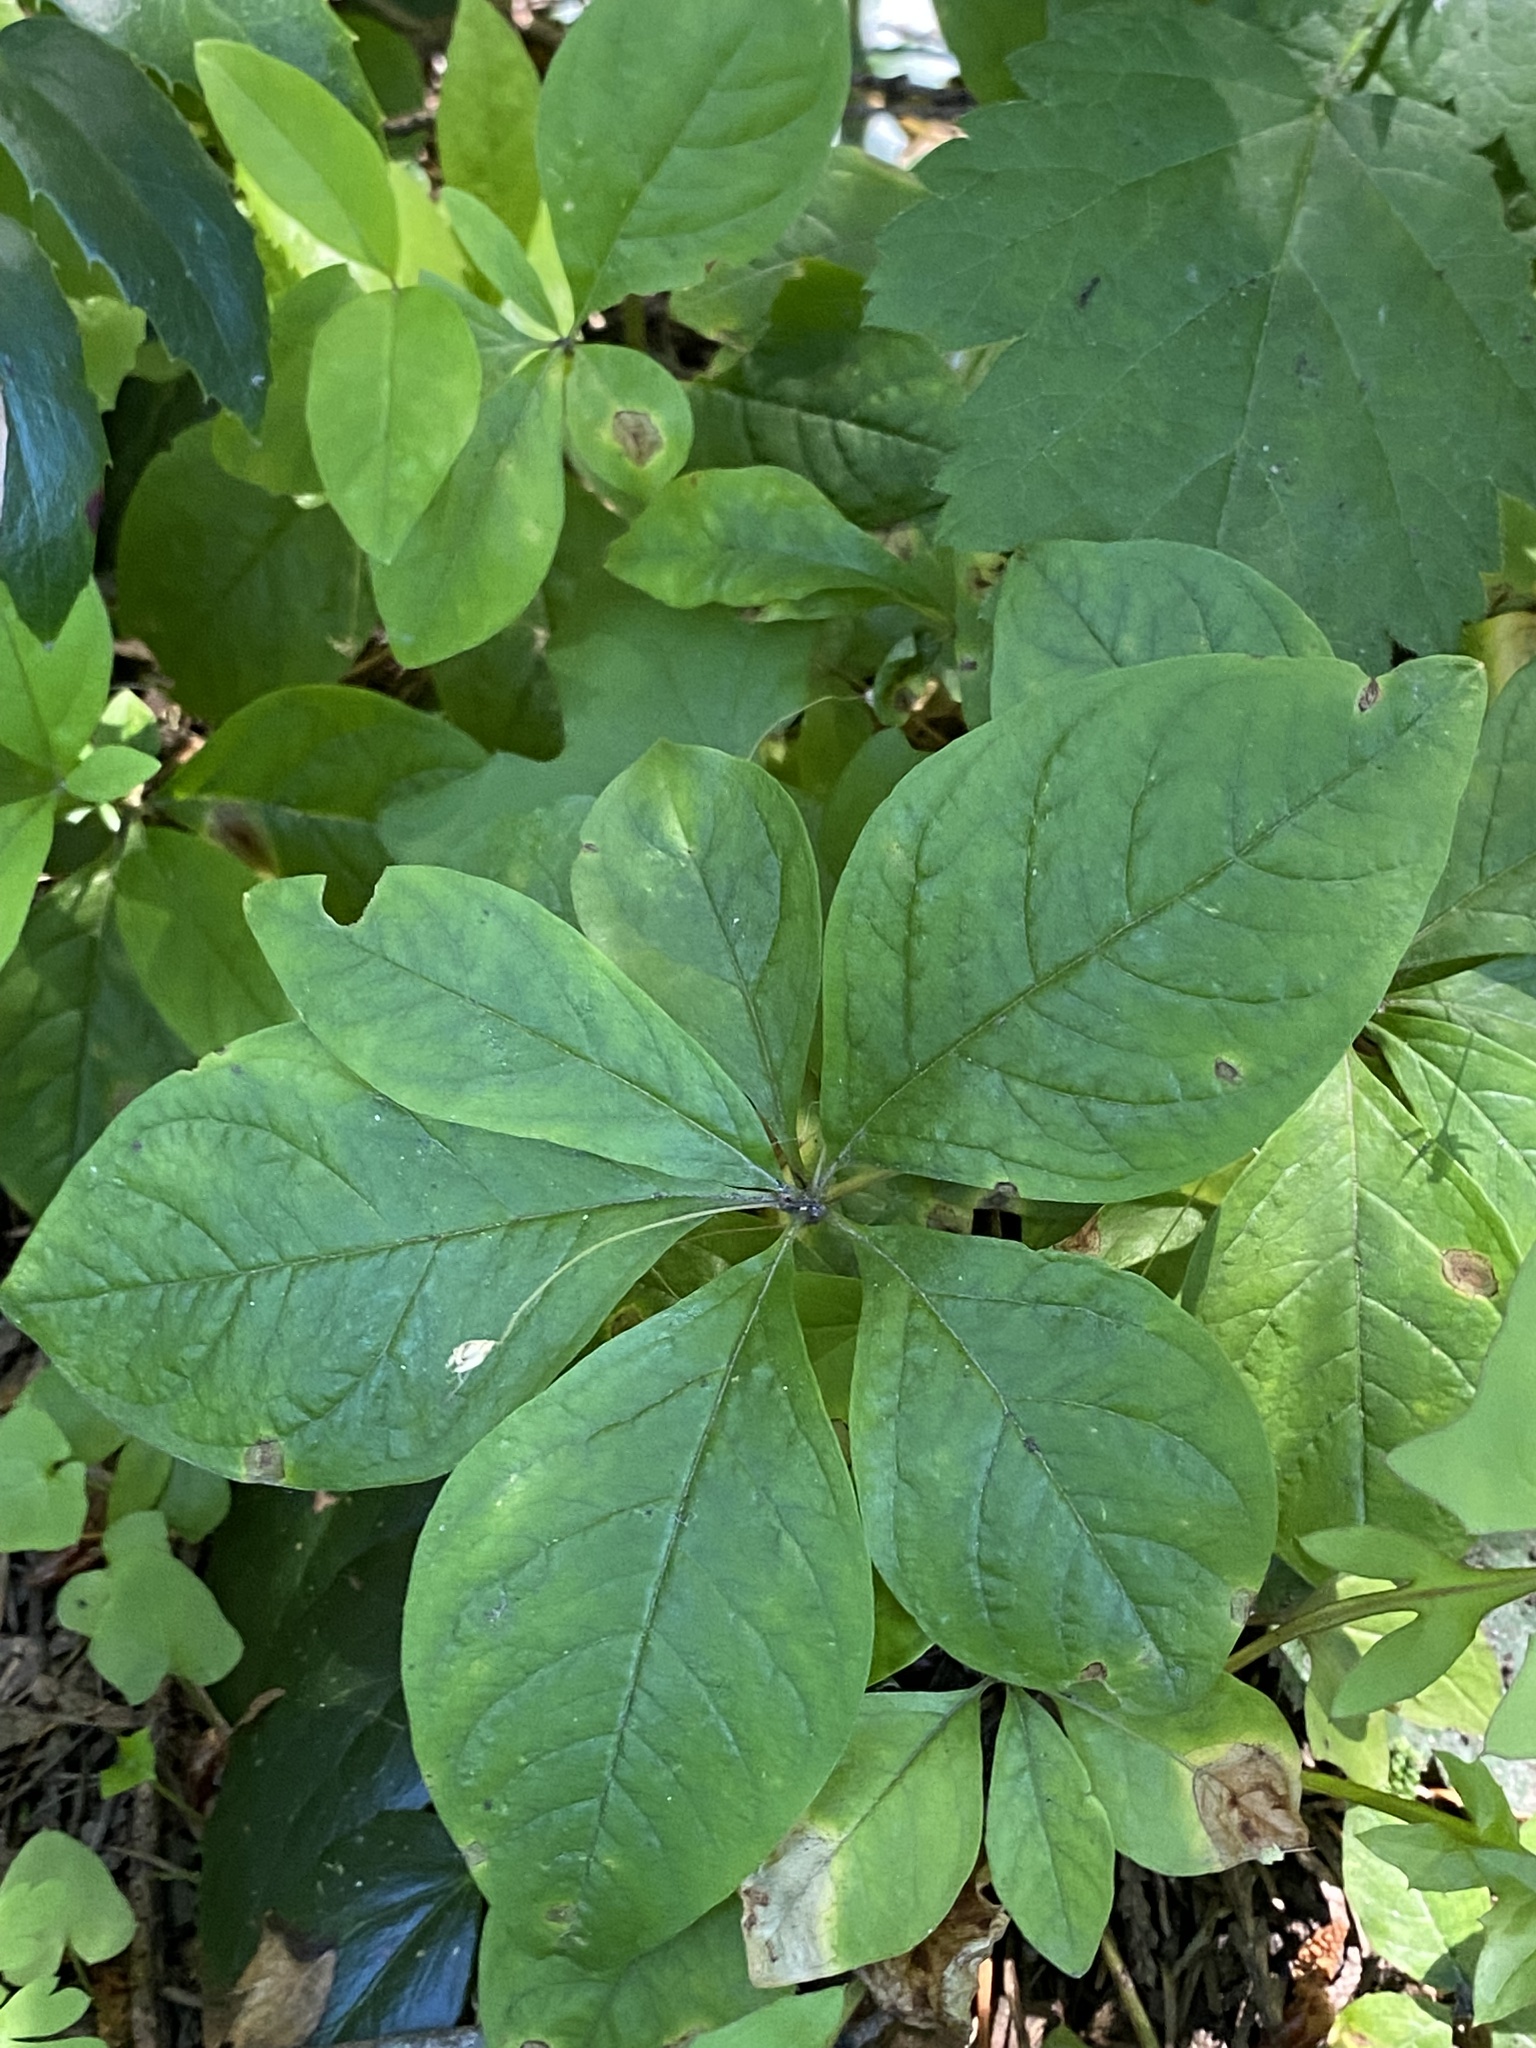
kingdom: Plantae
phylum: Tracheophyta
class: Magnoliopsida
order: Ericales
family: Primulaceae
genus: Lysimachia
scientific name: Lysimachia latifolia
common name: Pacific starflower
